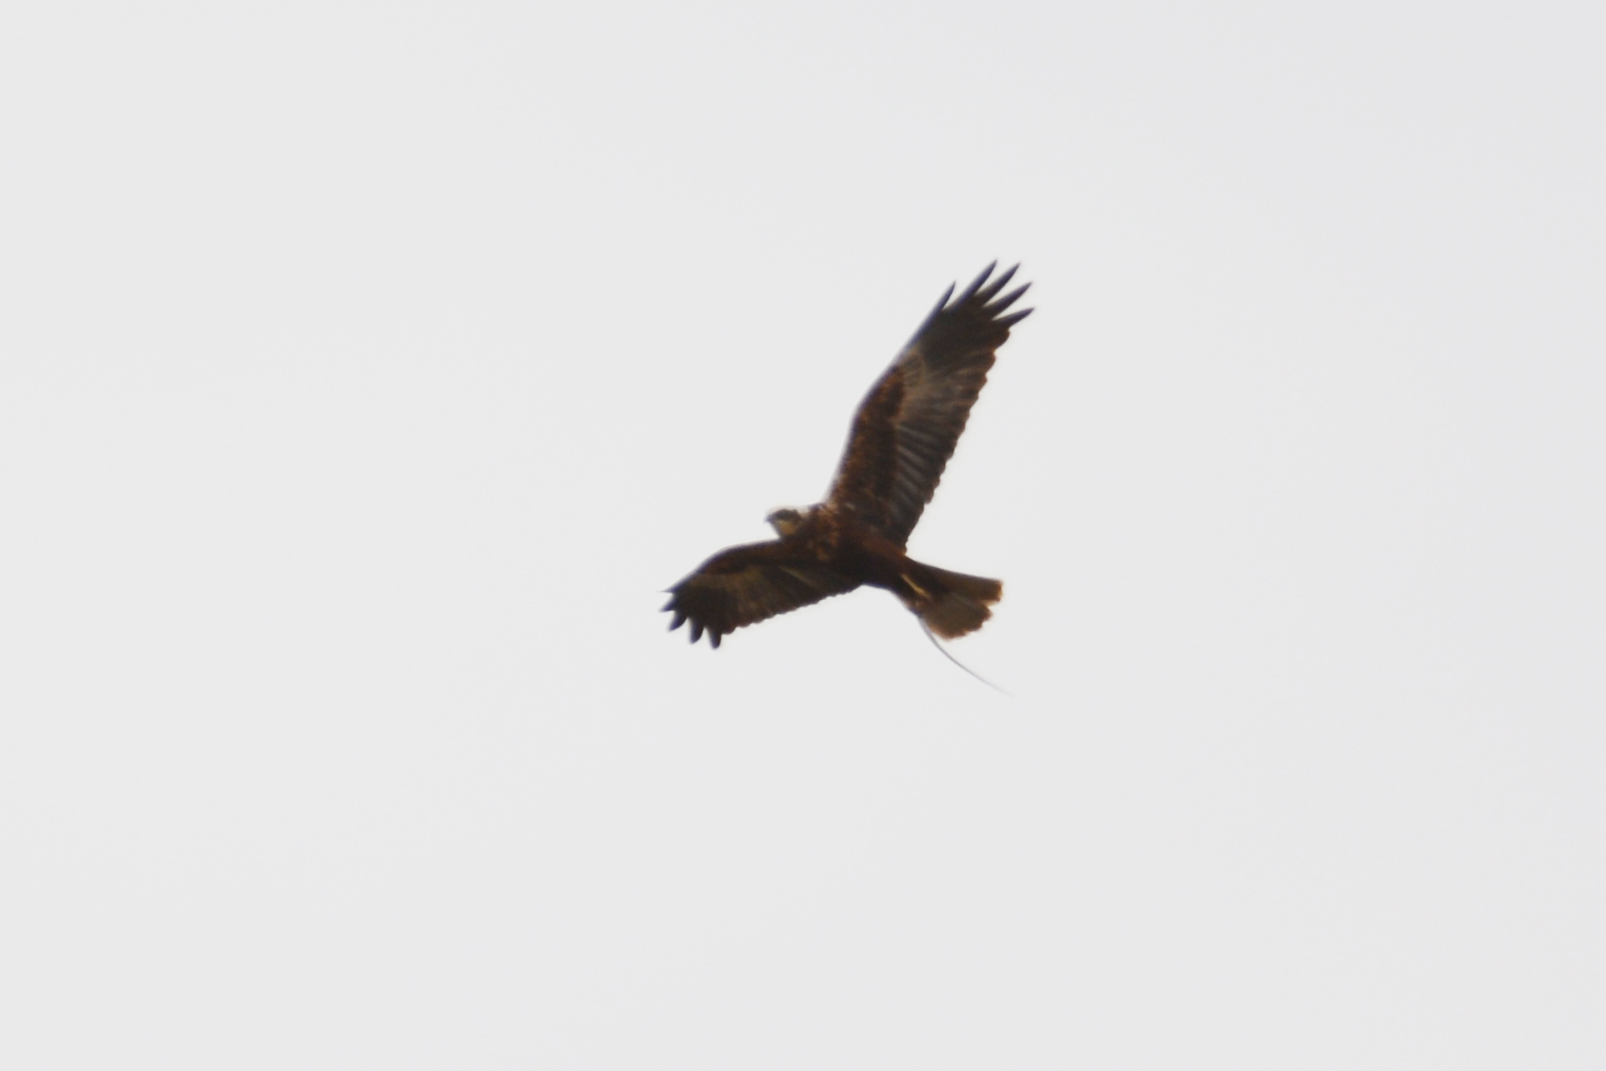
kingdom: Animalia
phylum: Chordata
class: Aves
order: Accipitriformes
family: Accipitridae
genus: Circus
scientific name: Circus aeruginosus
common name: Western marsh harrier
